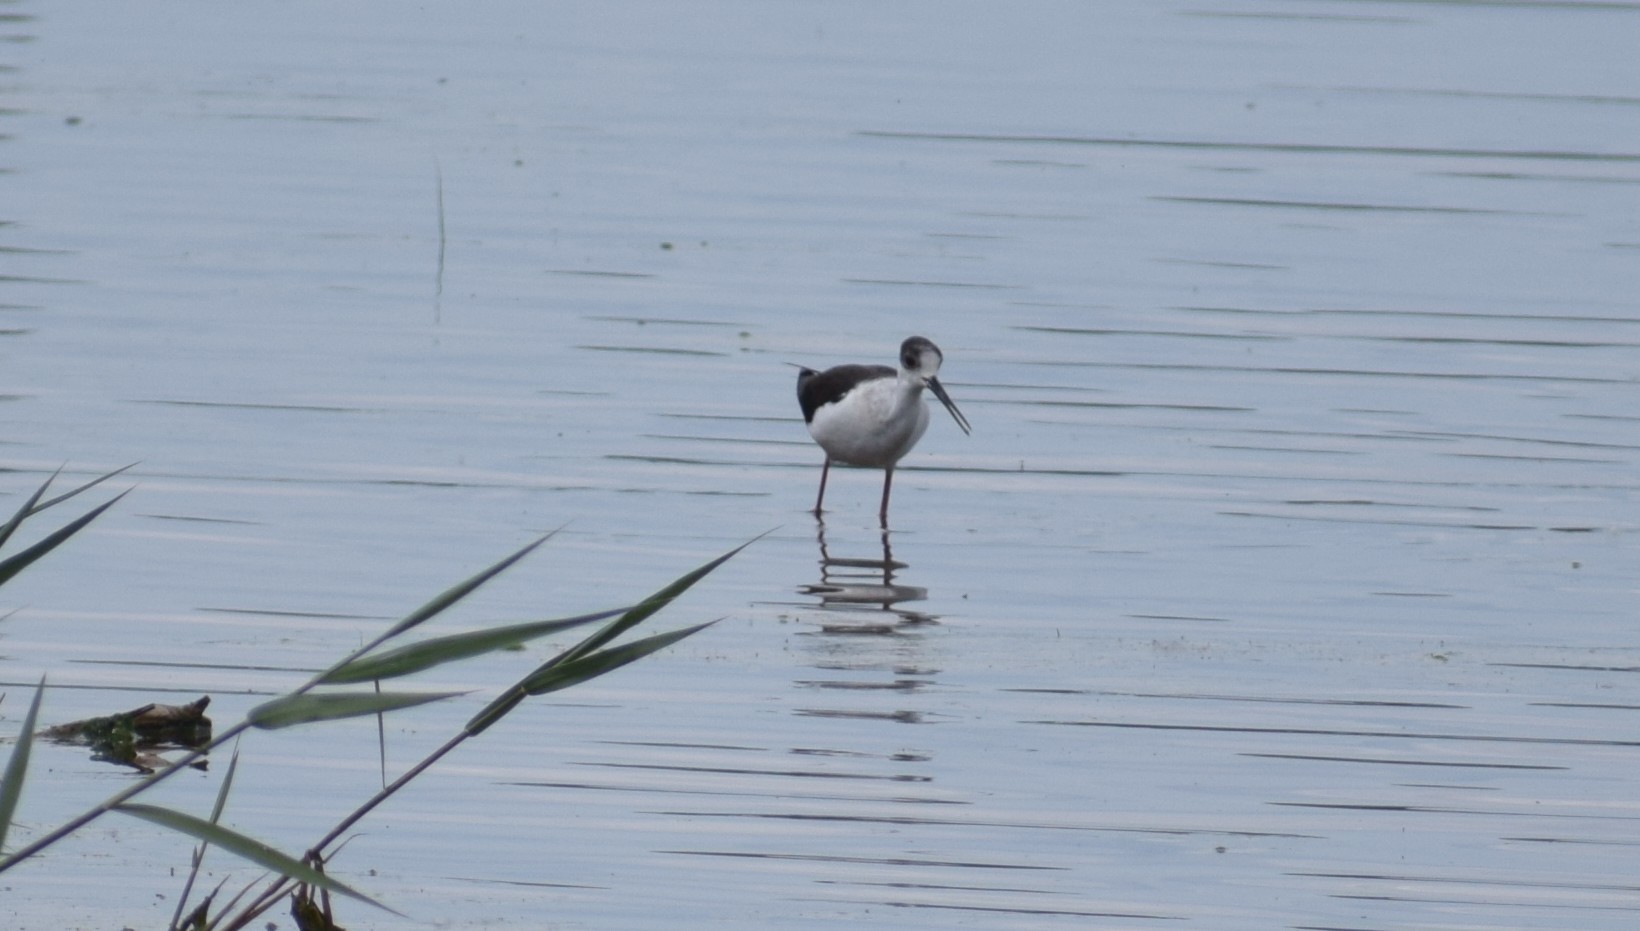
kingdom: Animalia
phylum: Chordata
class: Aves
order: Charadriiformes
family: Recurvirostridae
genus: Himantopus
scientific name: Himantopus himantopus
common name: Black-winged stilt
